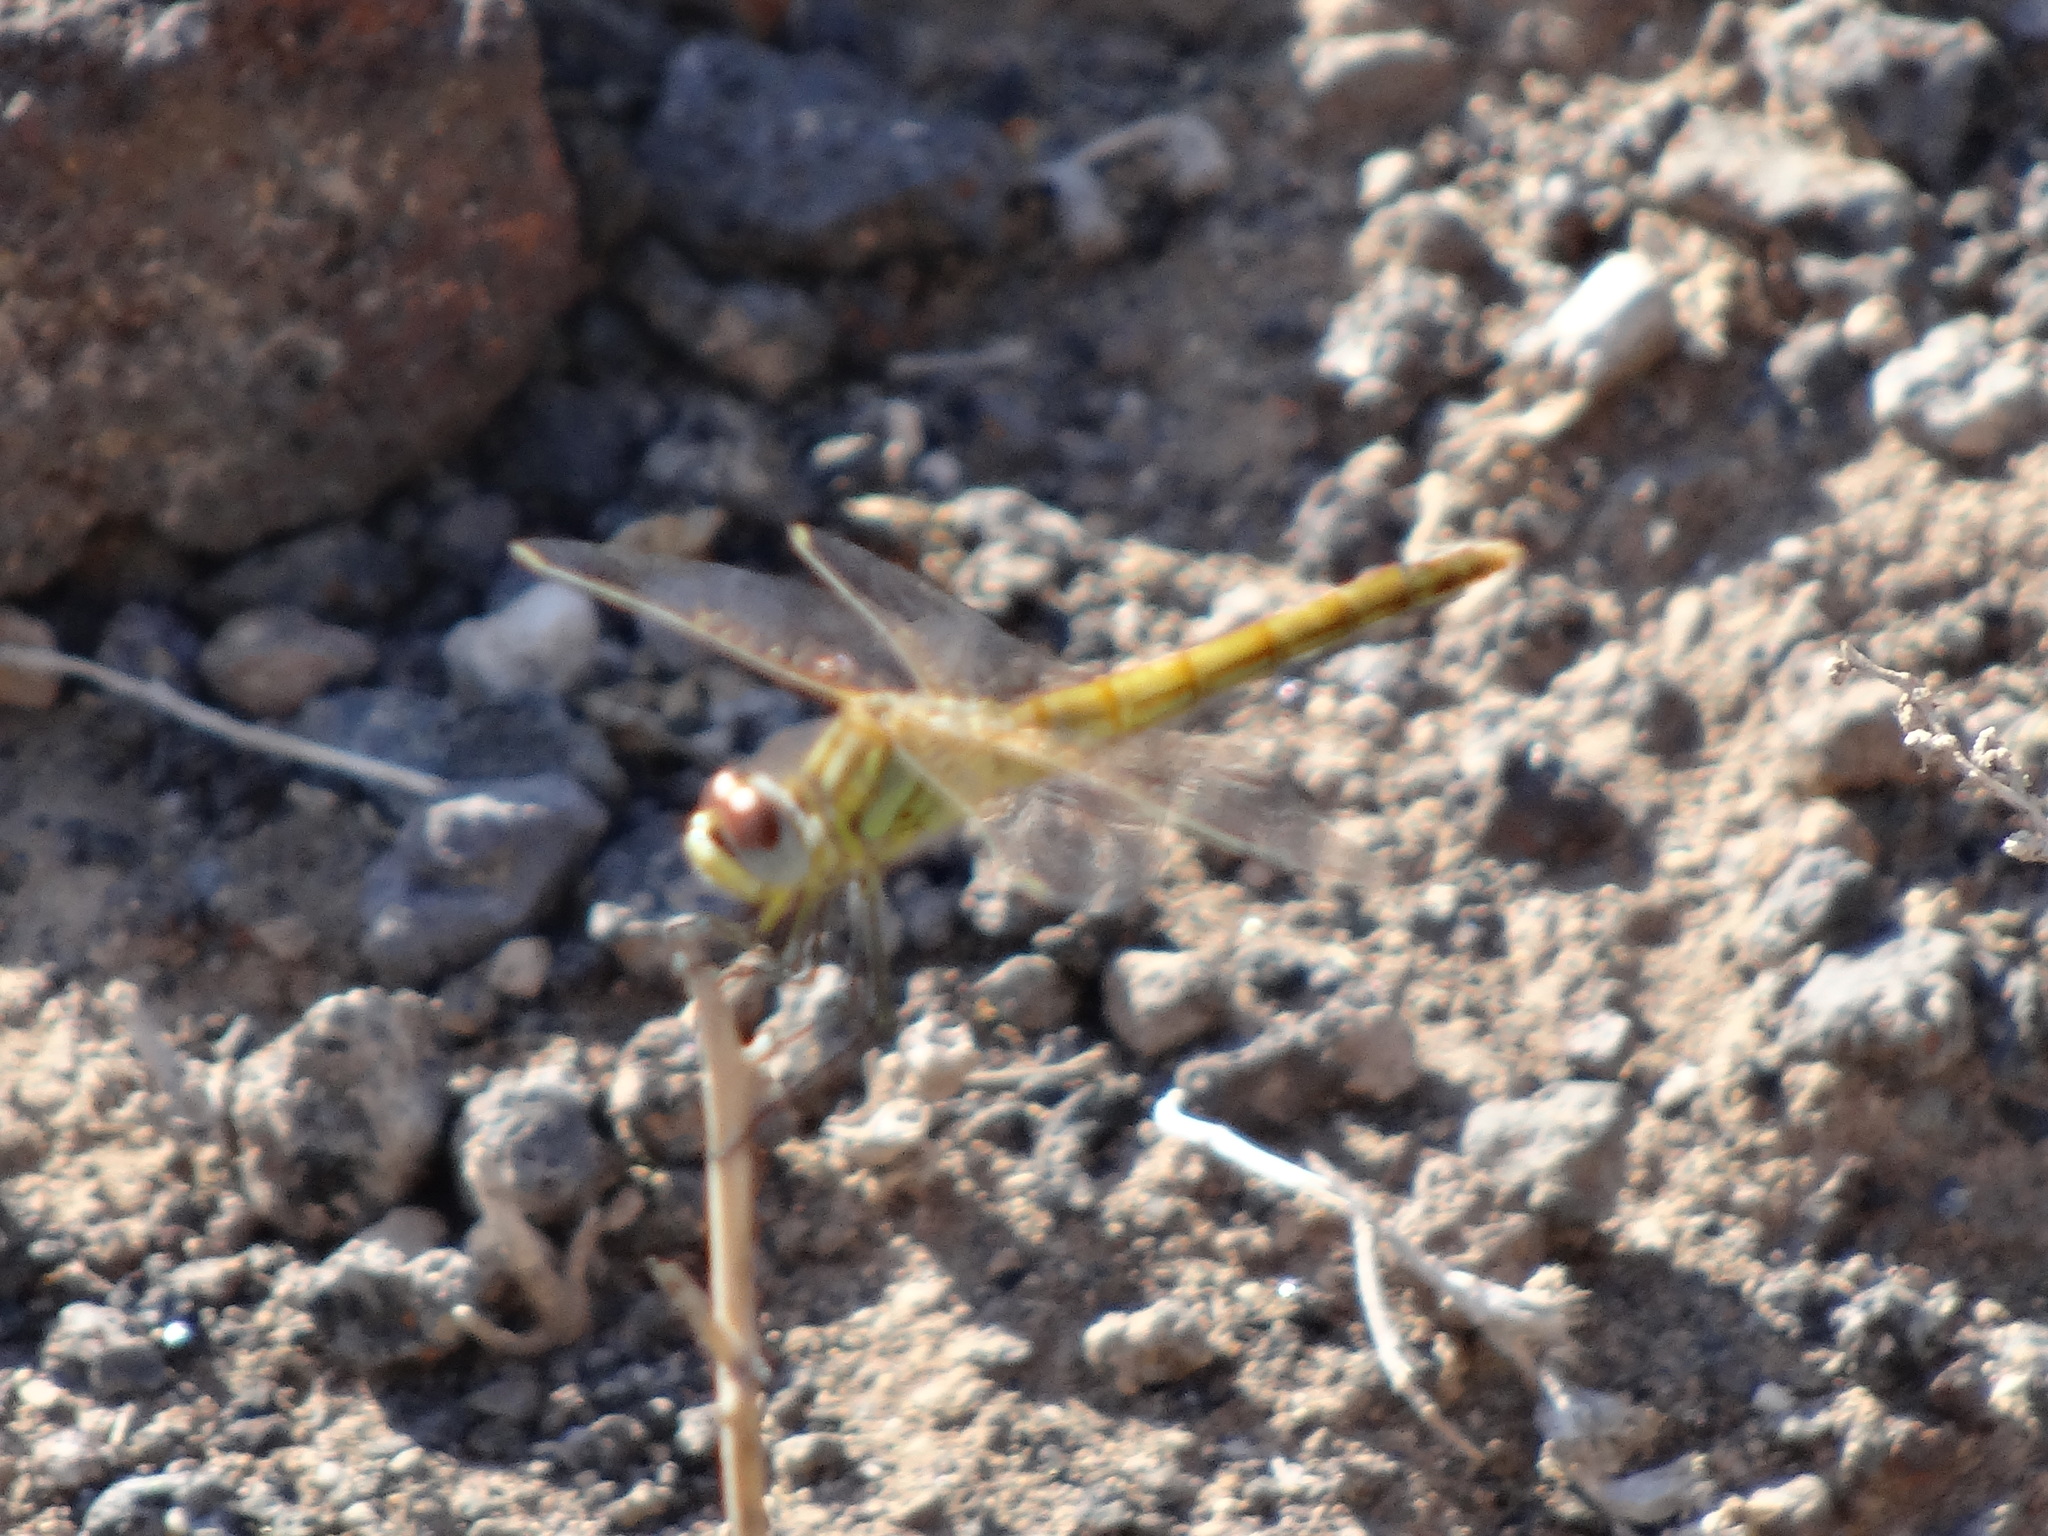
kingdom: Animalia
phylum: Arthropoda
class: Insecta
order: Odonata
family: Libellulidae
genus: Sympetrum
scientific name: Sympetrum fonscolombii
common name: Red-veined darter
